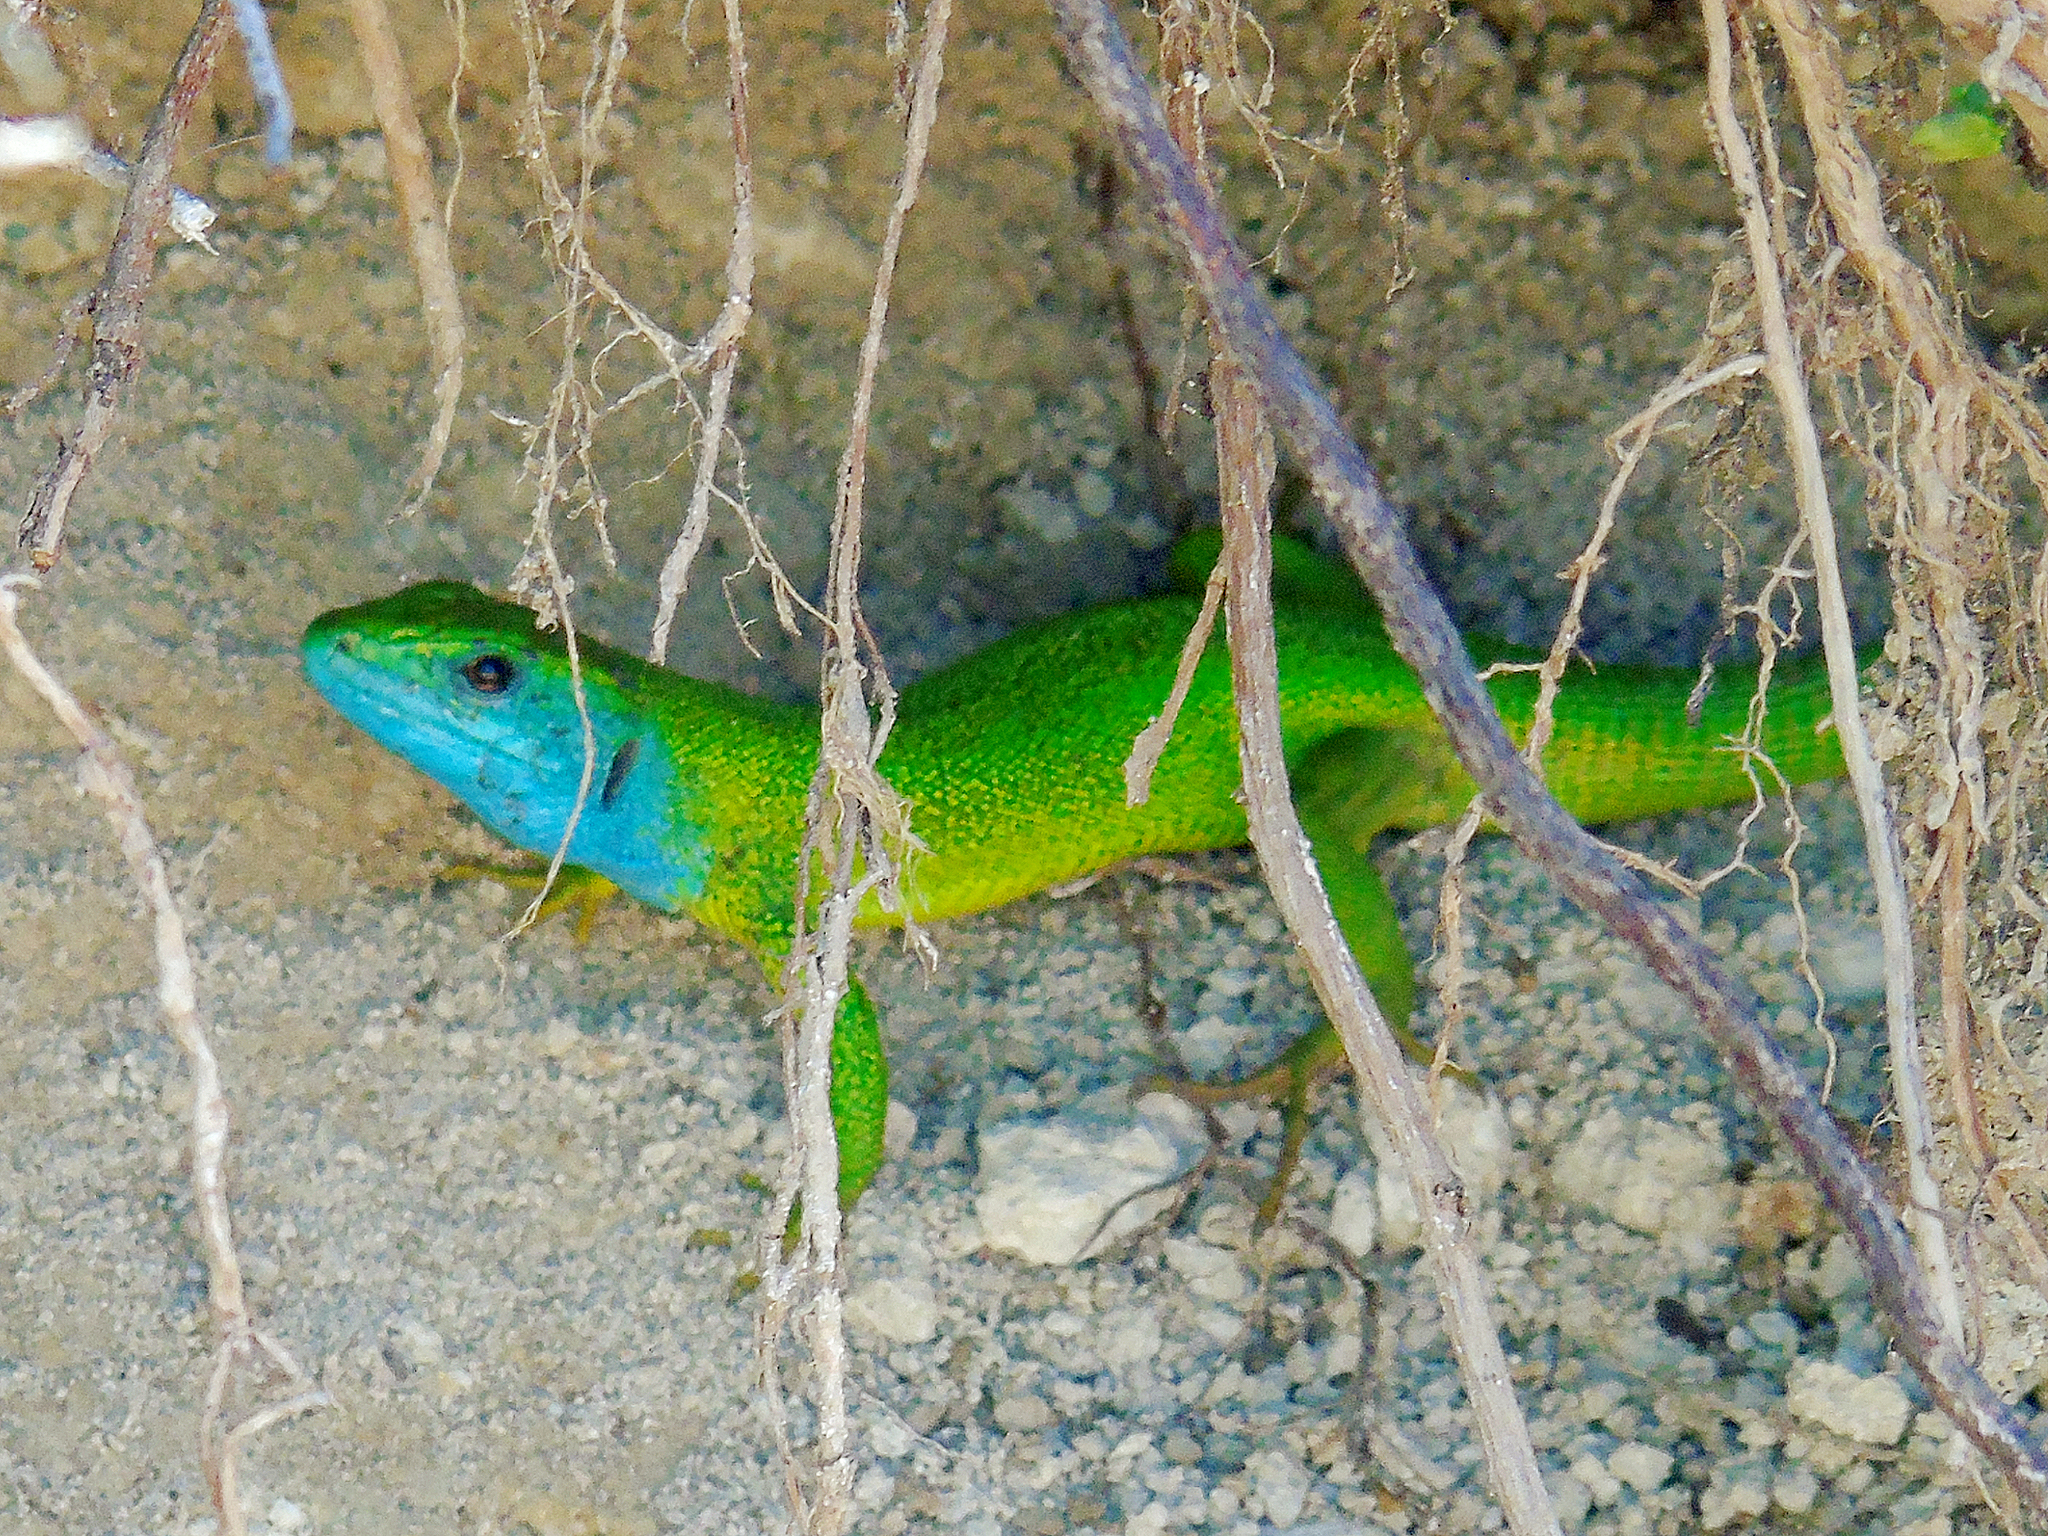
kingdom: Animalia
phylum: Chordata
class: Squamata
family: Lacertidae
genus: Lacerta
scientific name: Lacerta viridis
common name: European green lizard
